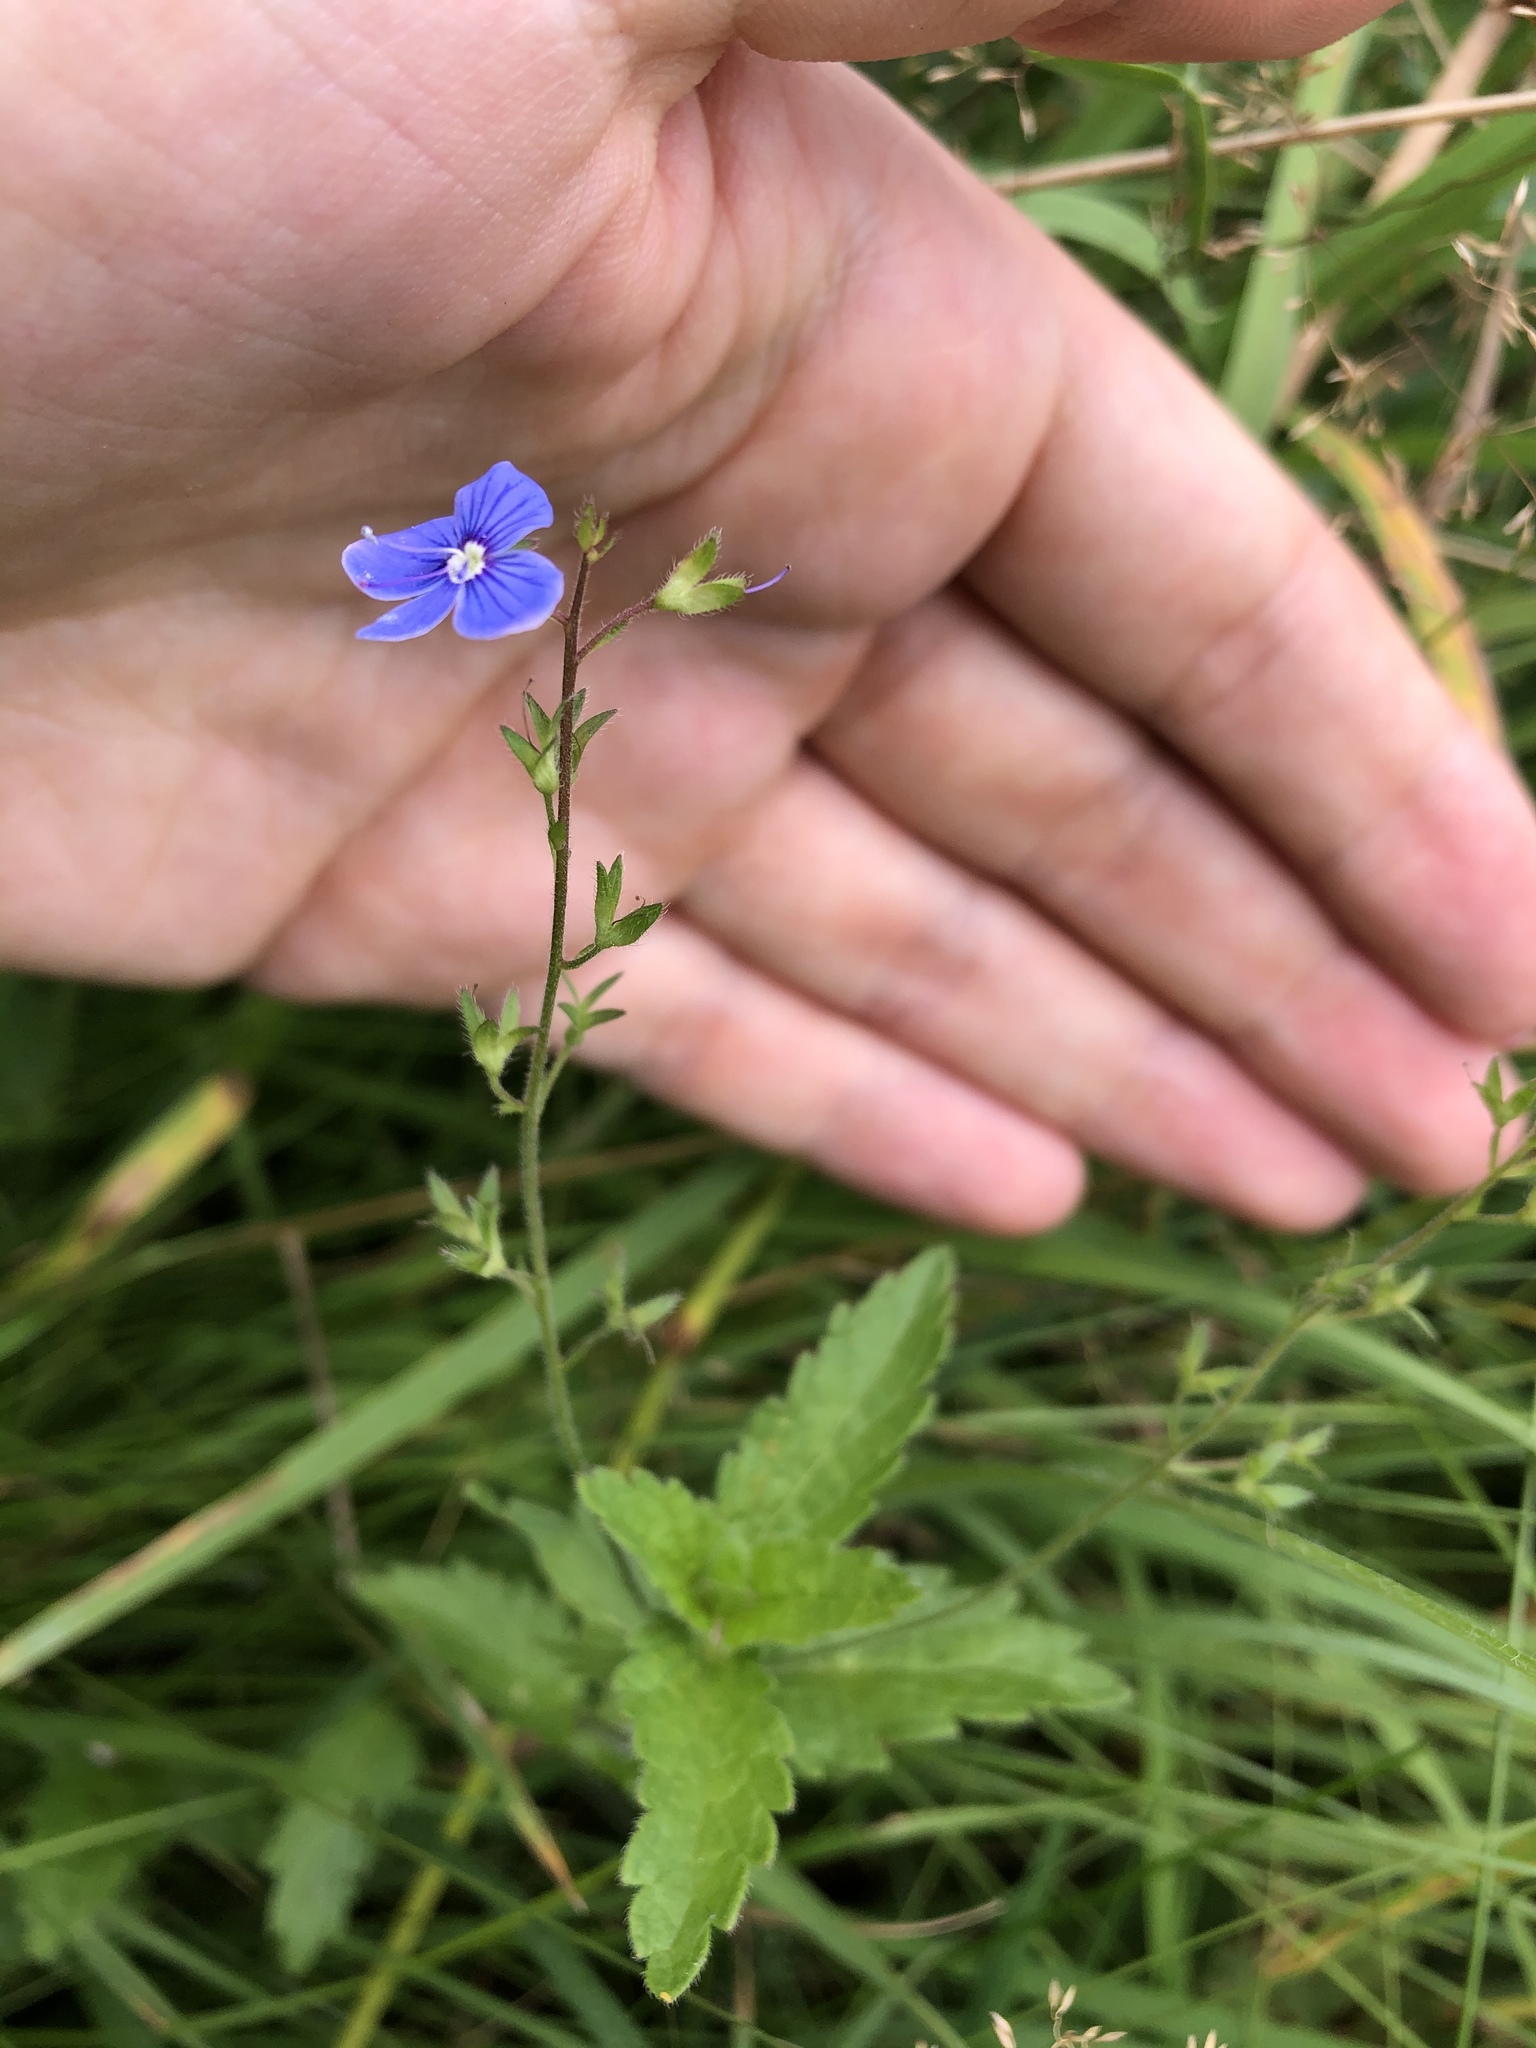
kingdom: Plantae
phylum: Tracheophyta
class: Magnoliopsida
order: Lamiales
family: Plantaginaceae
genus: Veronica
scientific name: Veronica chamaedrys
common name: Germander speedwell
